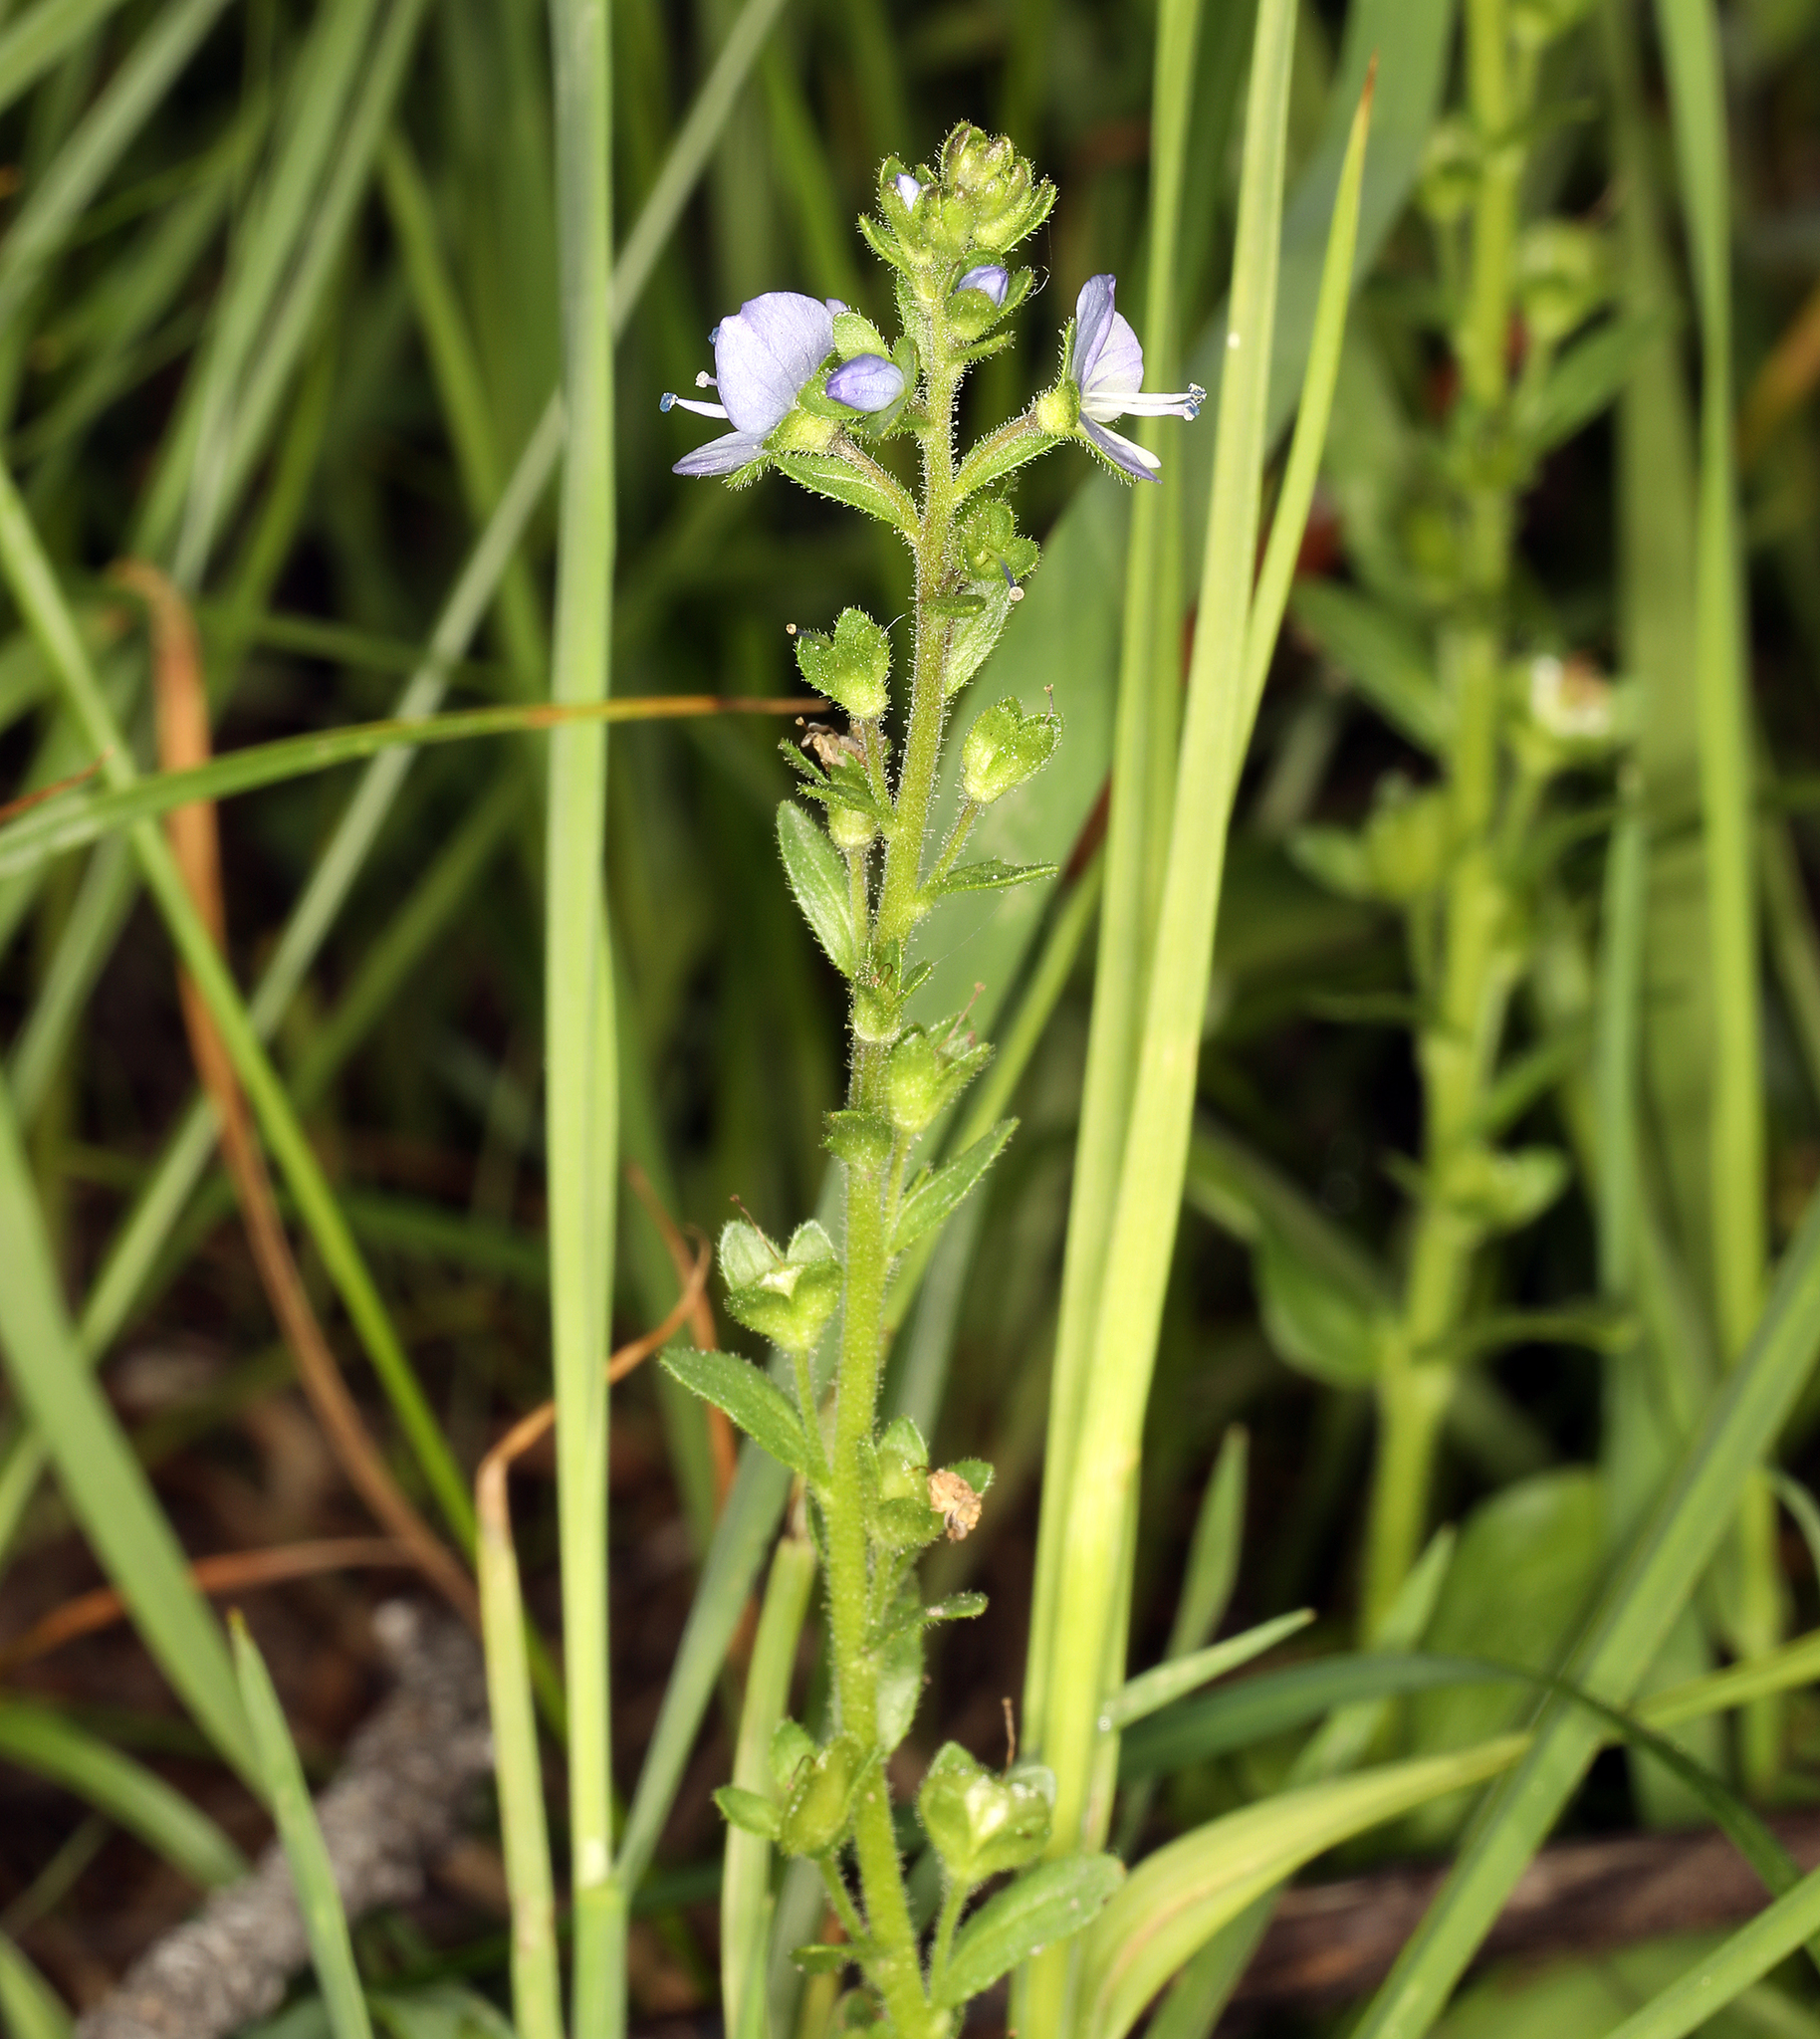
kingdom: Plantae
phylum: Tracheophyta
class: Magnoliopsida
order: Lamiales
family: Plantaginaceae
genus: Veronica
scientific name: Veronica serpyllifolia
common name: Thyme-leaved speedwell
